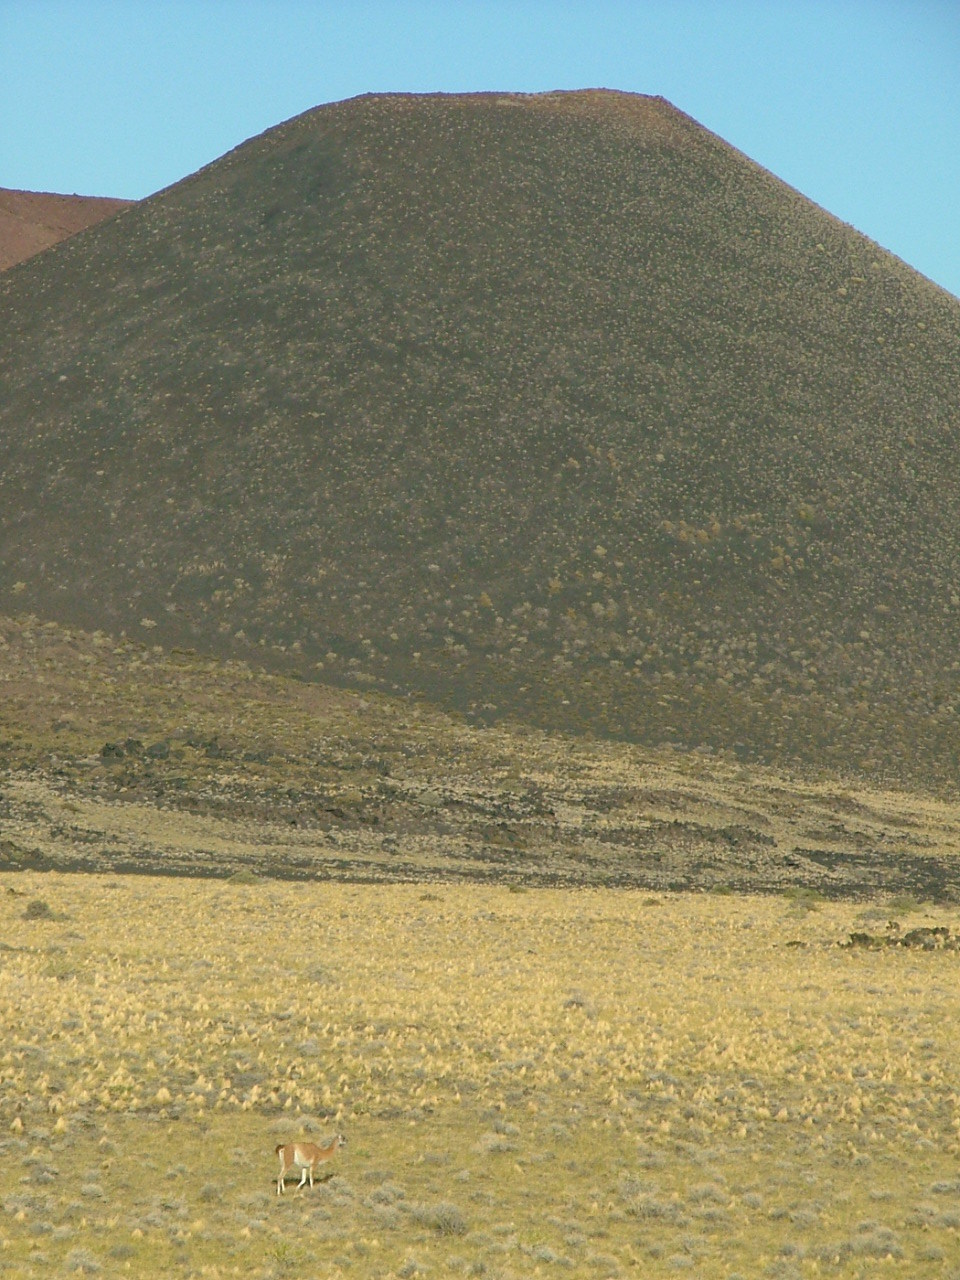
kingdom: Animalia
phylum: Chordata
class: Mammalia
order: Artiodactyla
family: Camelidae
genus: Lama
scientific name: Lama glama
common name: Llama
